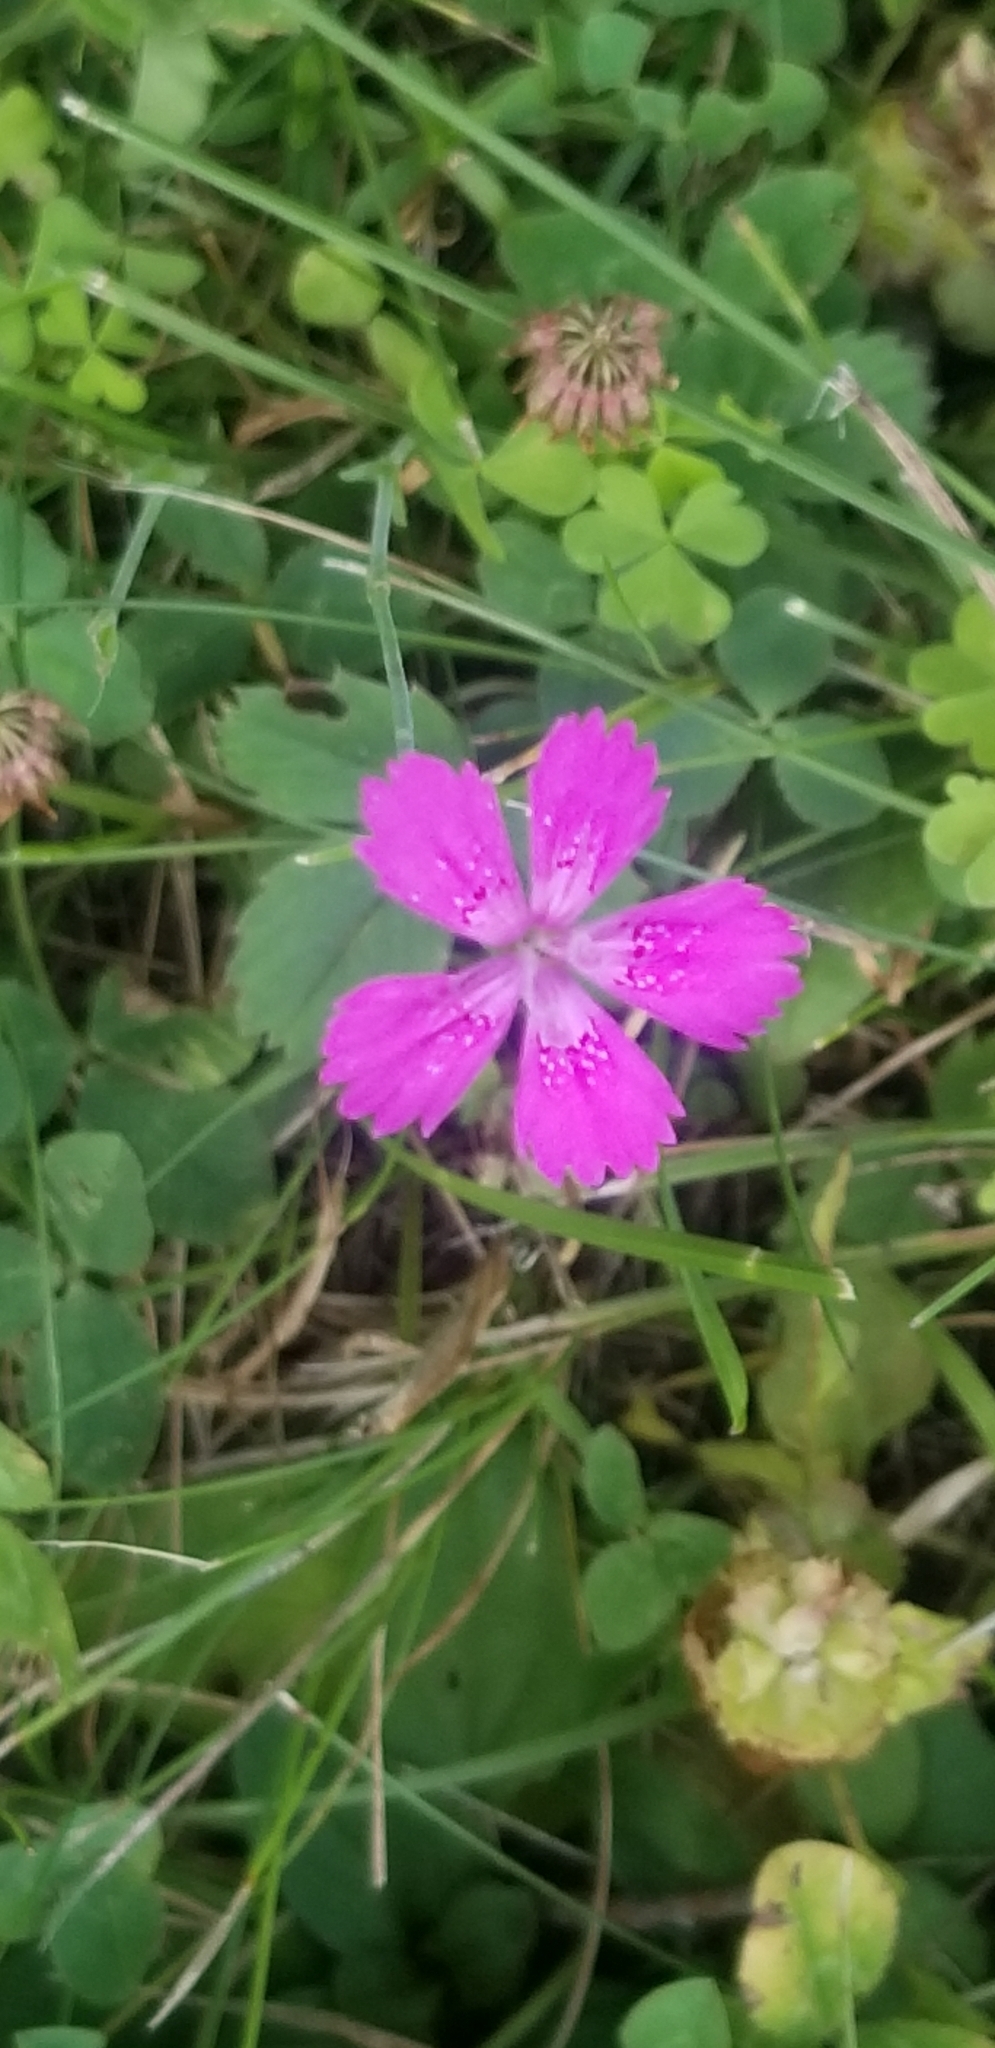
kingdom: Plantae
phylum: Tracheophyta
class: Magnoliopsida
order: Caryophyllales
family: Caryophyllaceae
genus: Dianthus
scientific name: Dianthus deltoides
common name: Maiden pink
